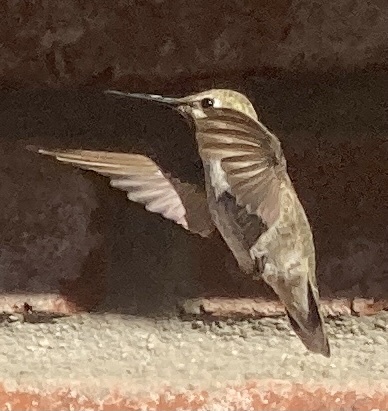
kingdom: Animalia
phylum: Chordata
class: Aves
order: Apodiformes
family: Trochilidae
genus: Calypte
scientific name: Calypte anna
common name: Anna's hummingbird
